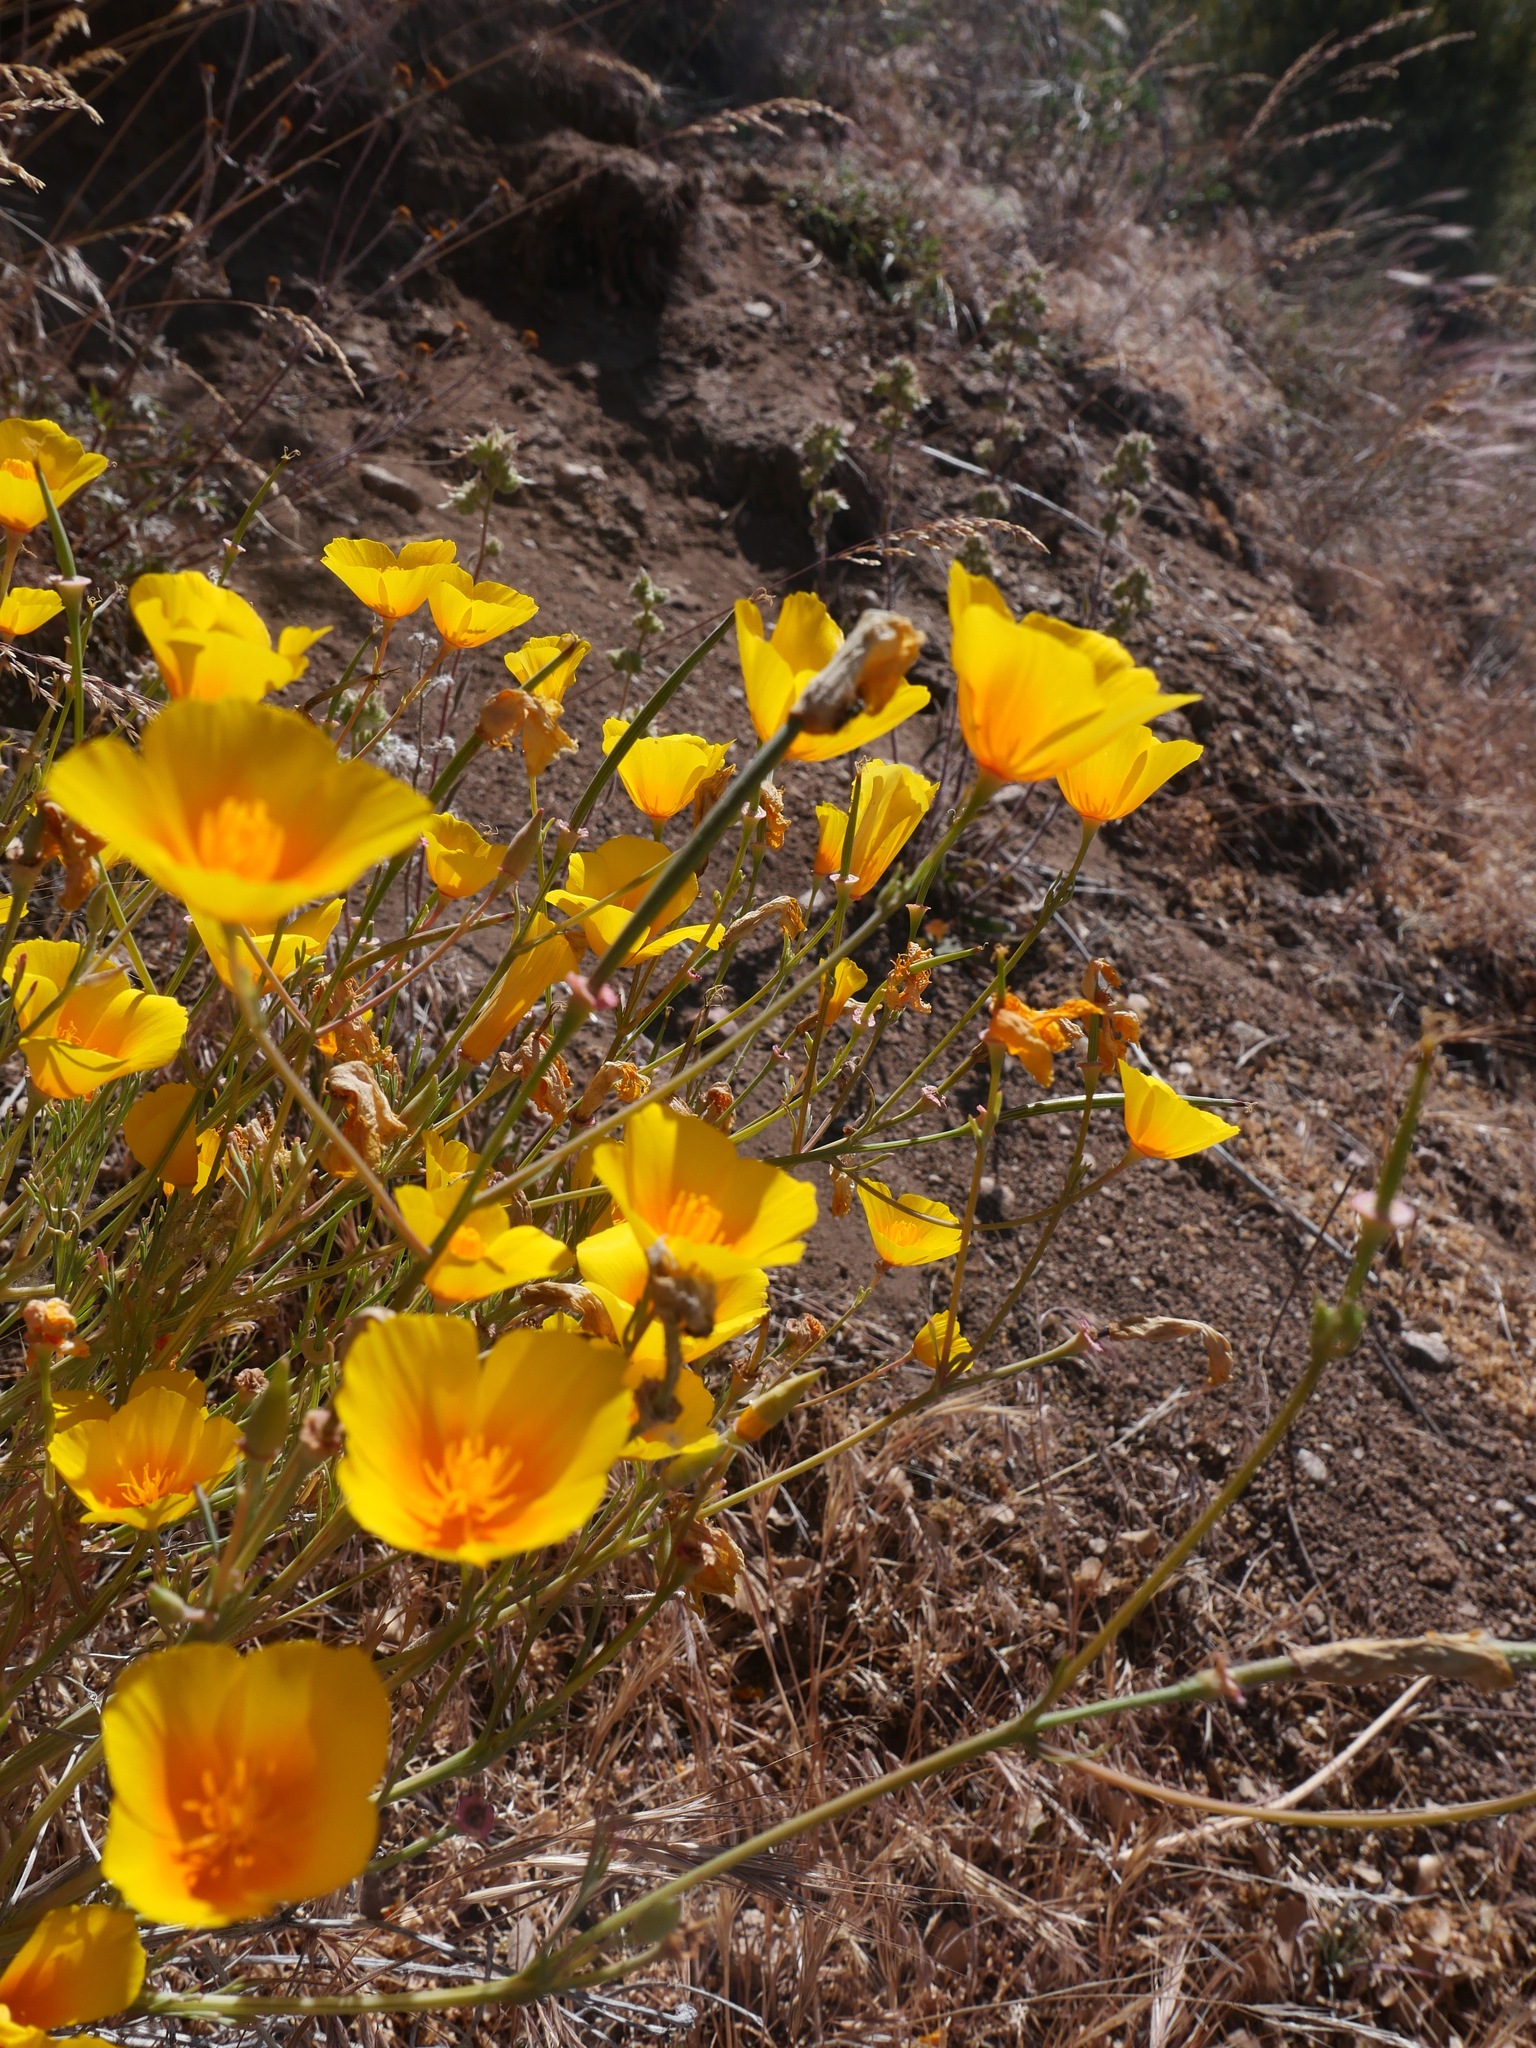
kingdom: Plantae
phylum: Tracheophyta
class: Magnoliopsida
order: Ranunculales
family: Papaveraceae
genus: Eschscholzia
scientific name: Eschscholzia californica
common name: California poppy
